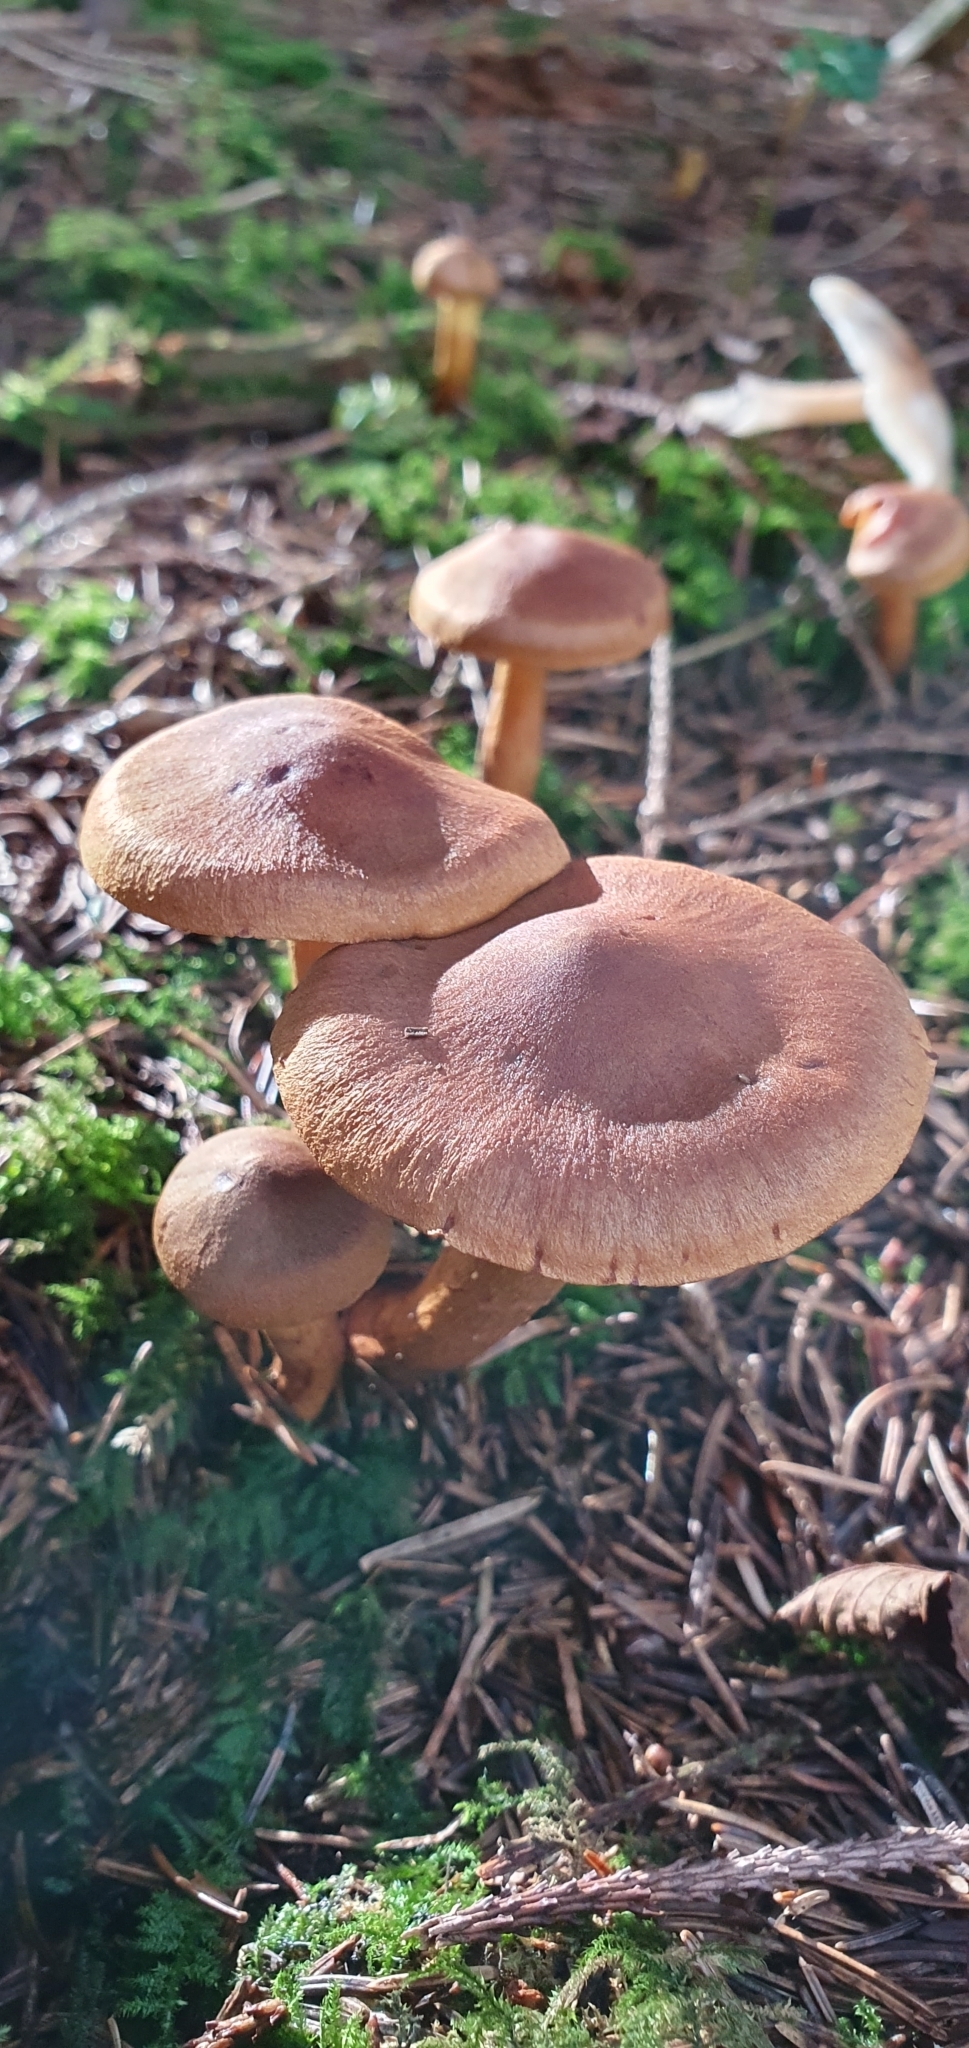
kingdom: Fungi
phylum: Basidiomycota
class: Agaricomycetes
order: Agaricales
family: Cortinariaceae
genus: Cortinarius
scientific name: Cortinarius cinnamomeus
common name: Cinnamon webcap
